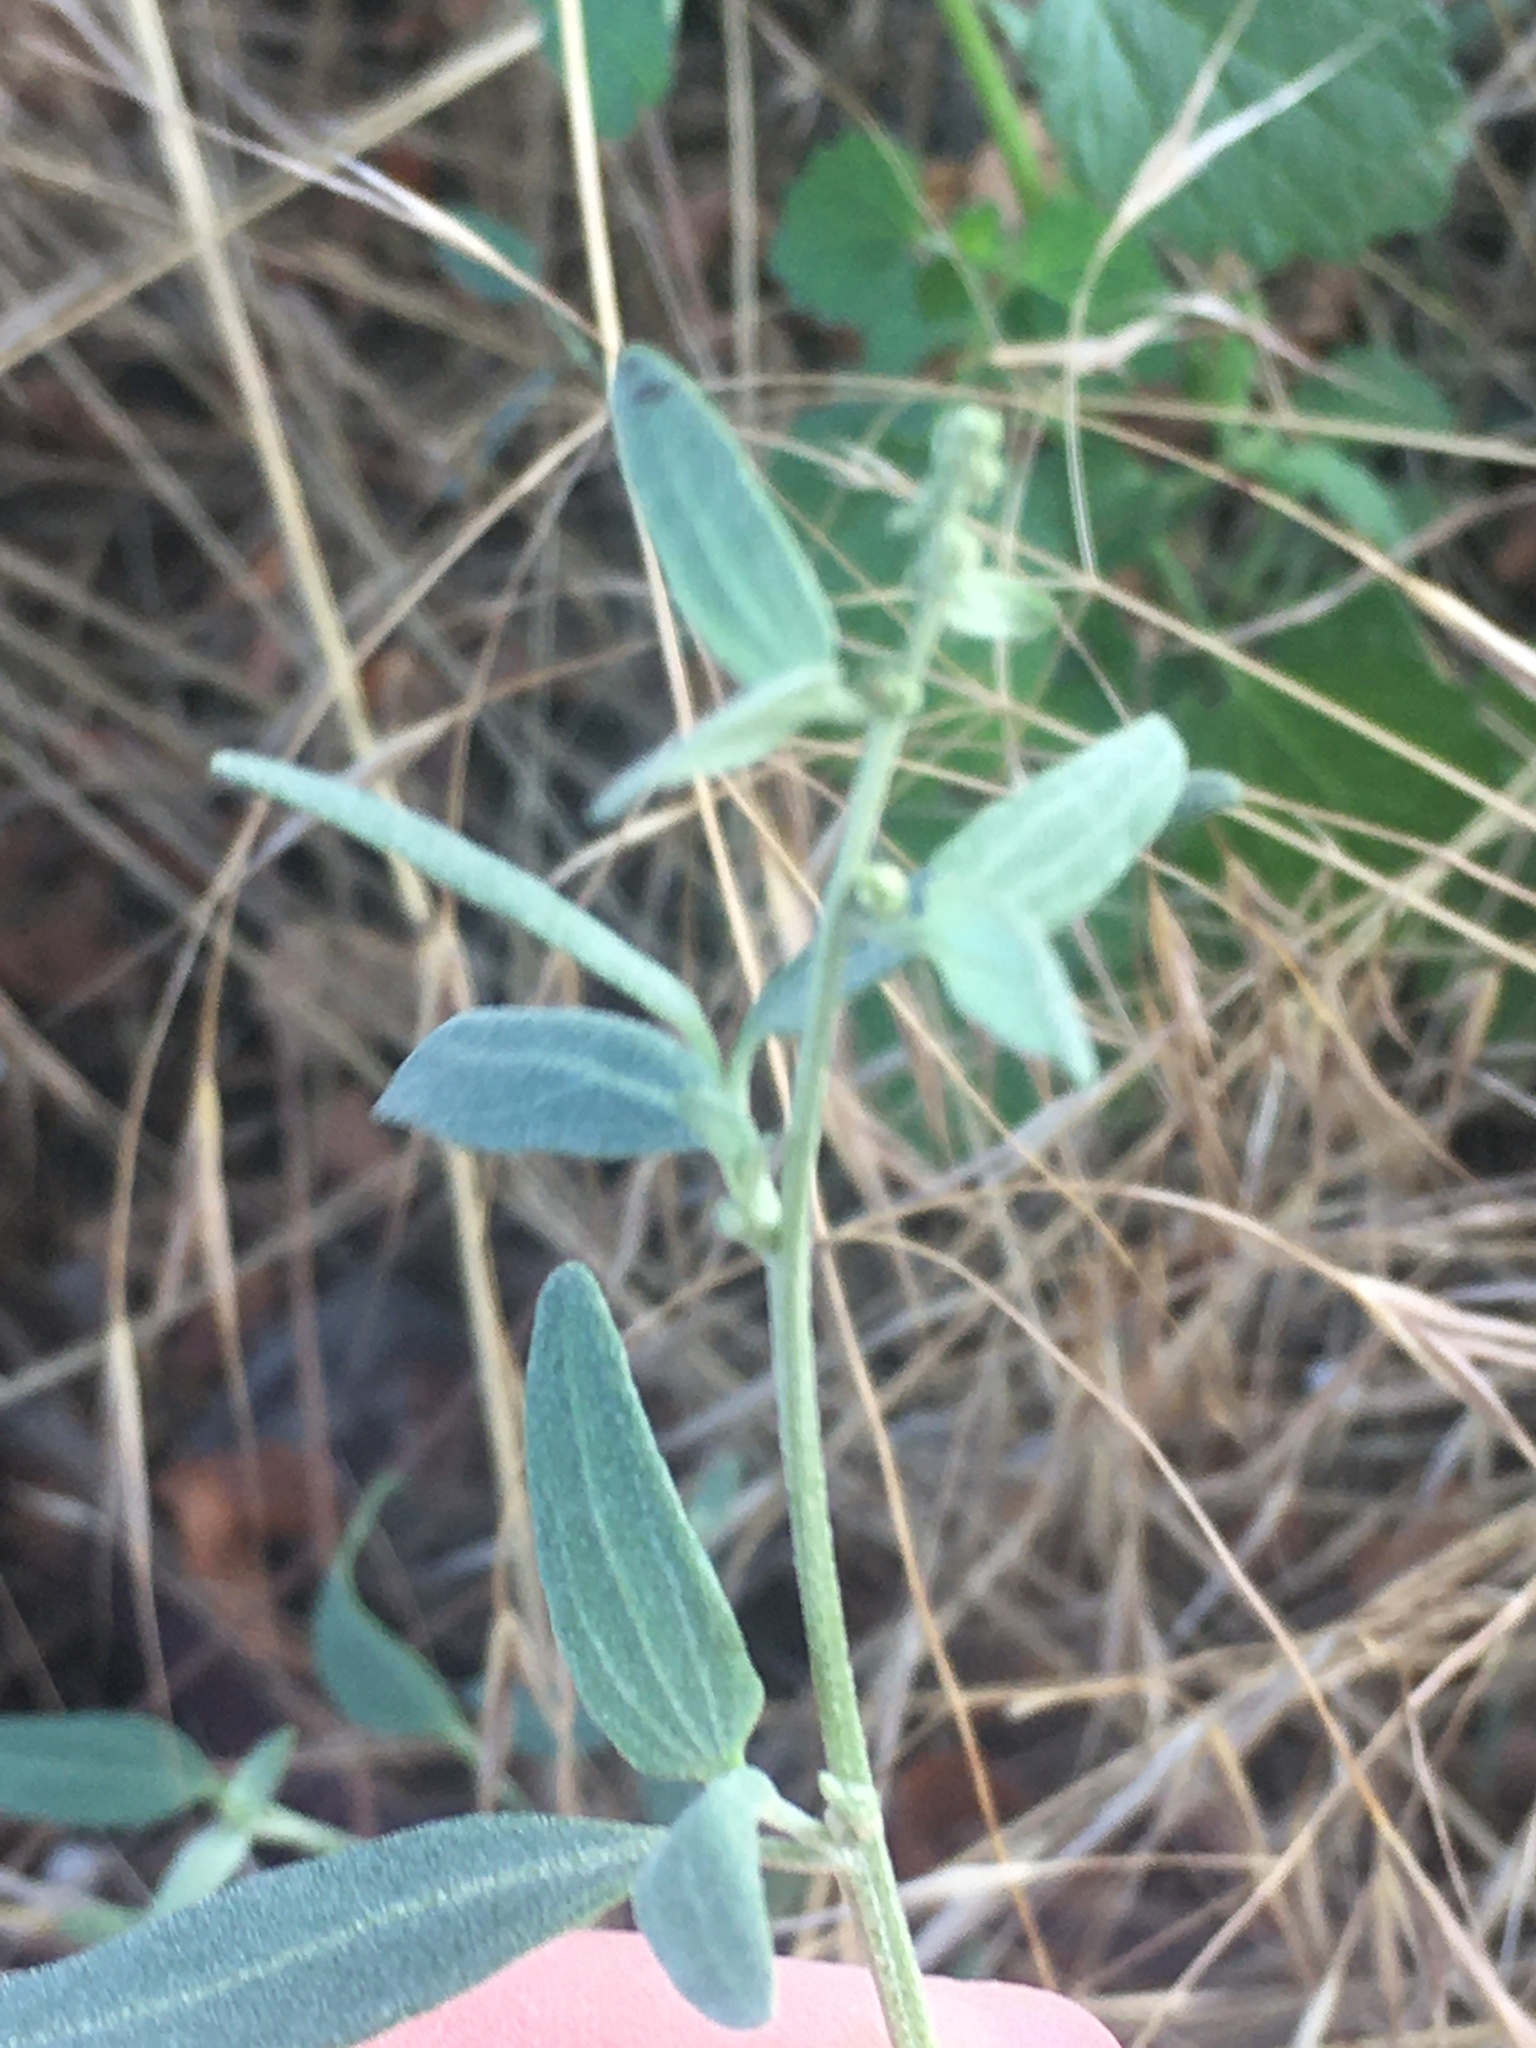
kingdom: Plantae
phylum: Tracheophyta
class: Magnoliopsida
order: Caryophyllales
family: Amaranthaceae
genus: Atriplex
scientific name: Atriplex patula
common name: Common orache
